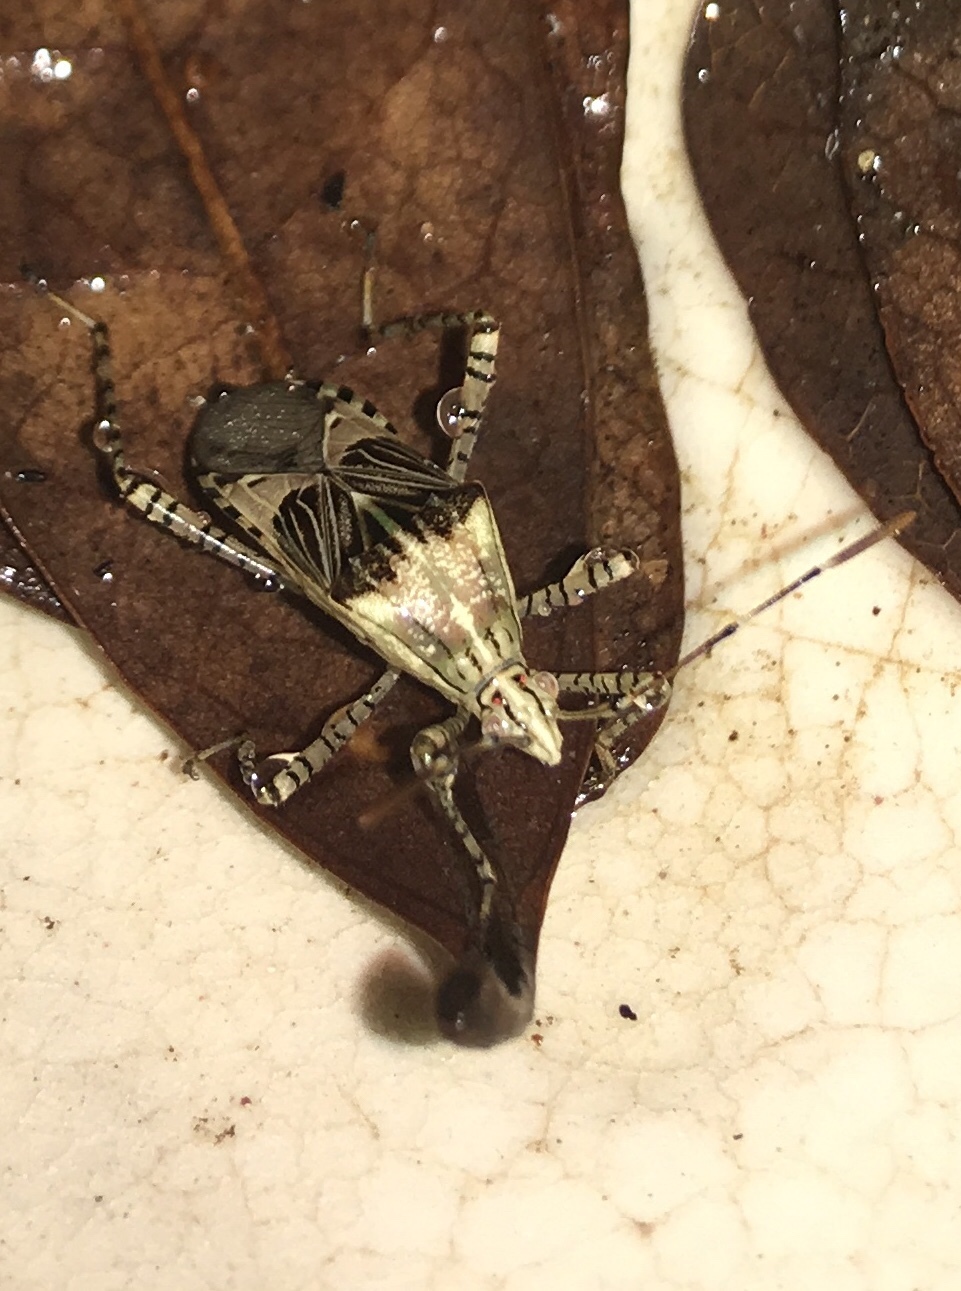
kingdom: Animalia
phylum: Arthropoda
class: Insecta
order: Hemiptera
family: Coreidae
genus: Hypselonotus
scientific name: Hypselonotus punctiventris
